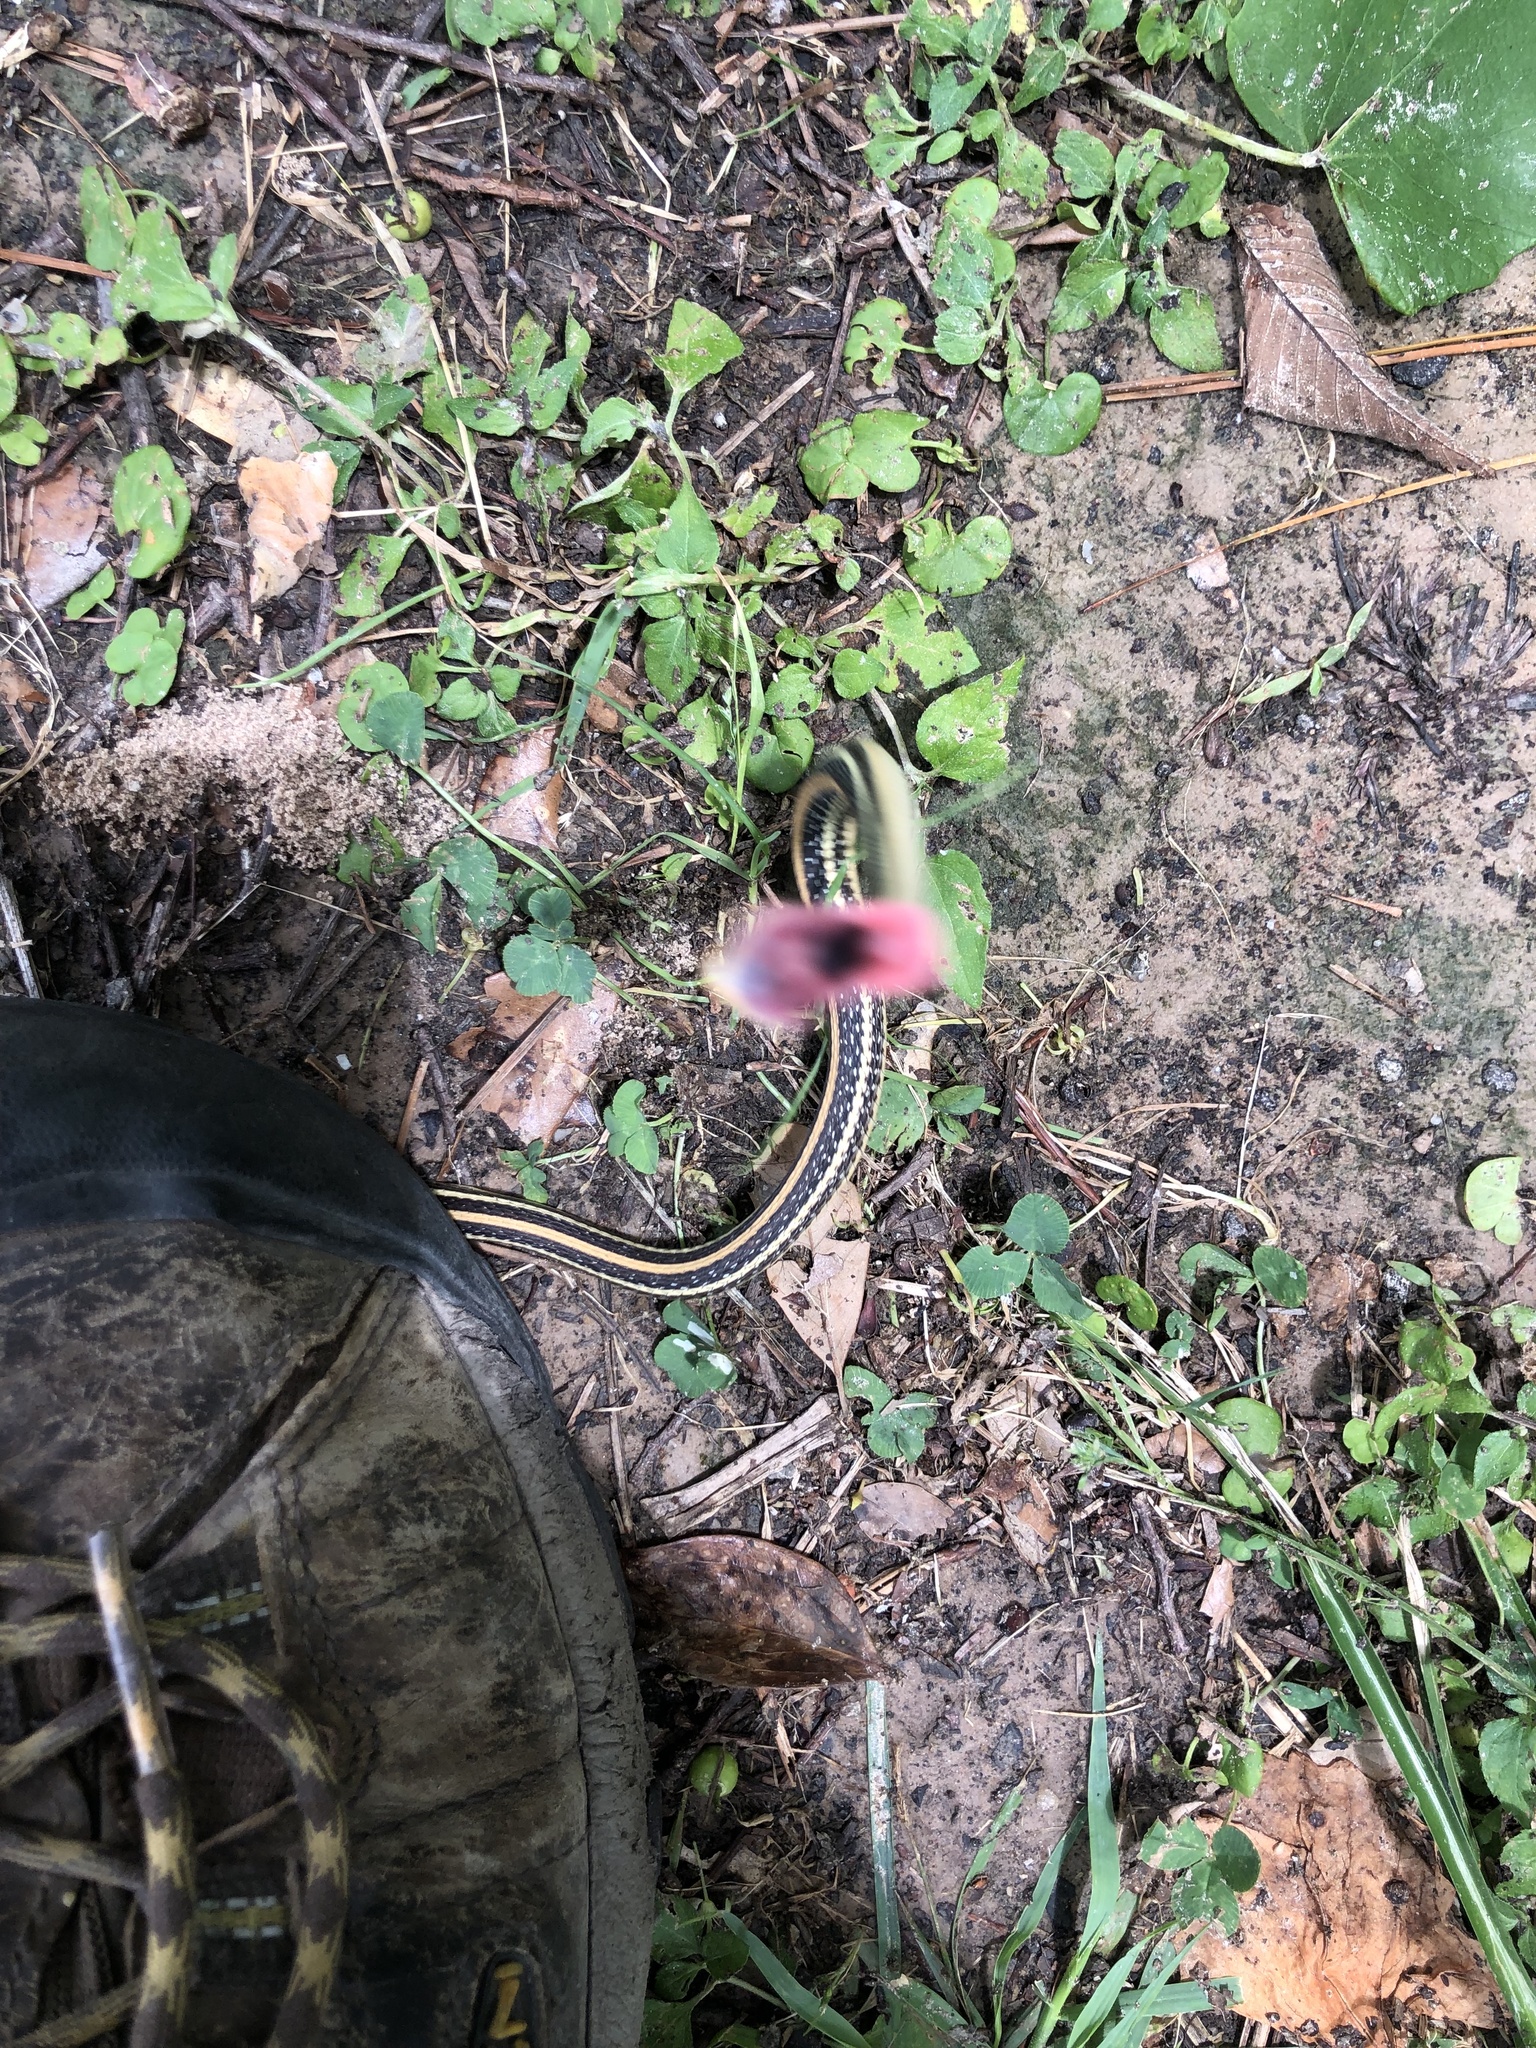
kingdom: Animalia
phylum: Chordata
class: Squamata
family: Colubridae
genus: Thamnophis
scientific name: Thamnophis proximus
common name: Western ribbon snake
